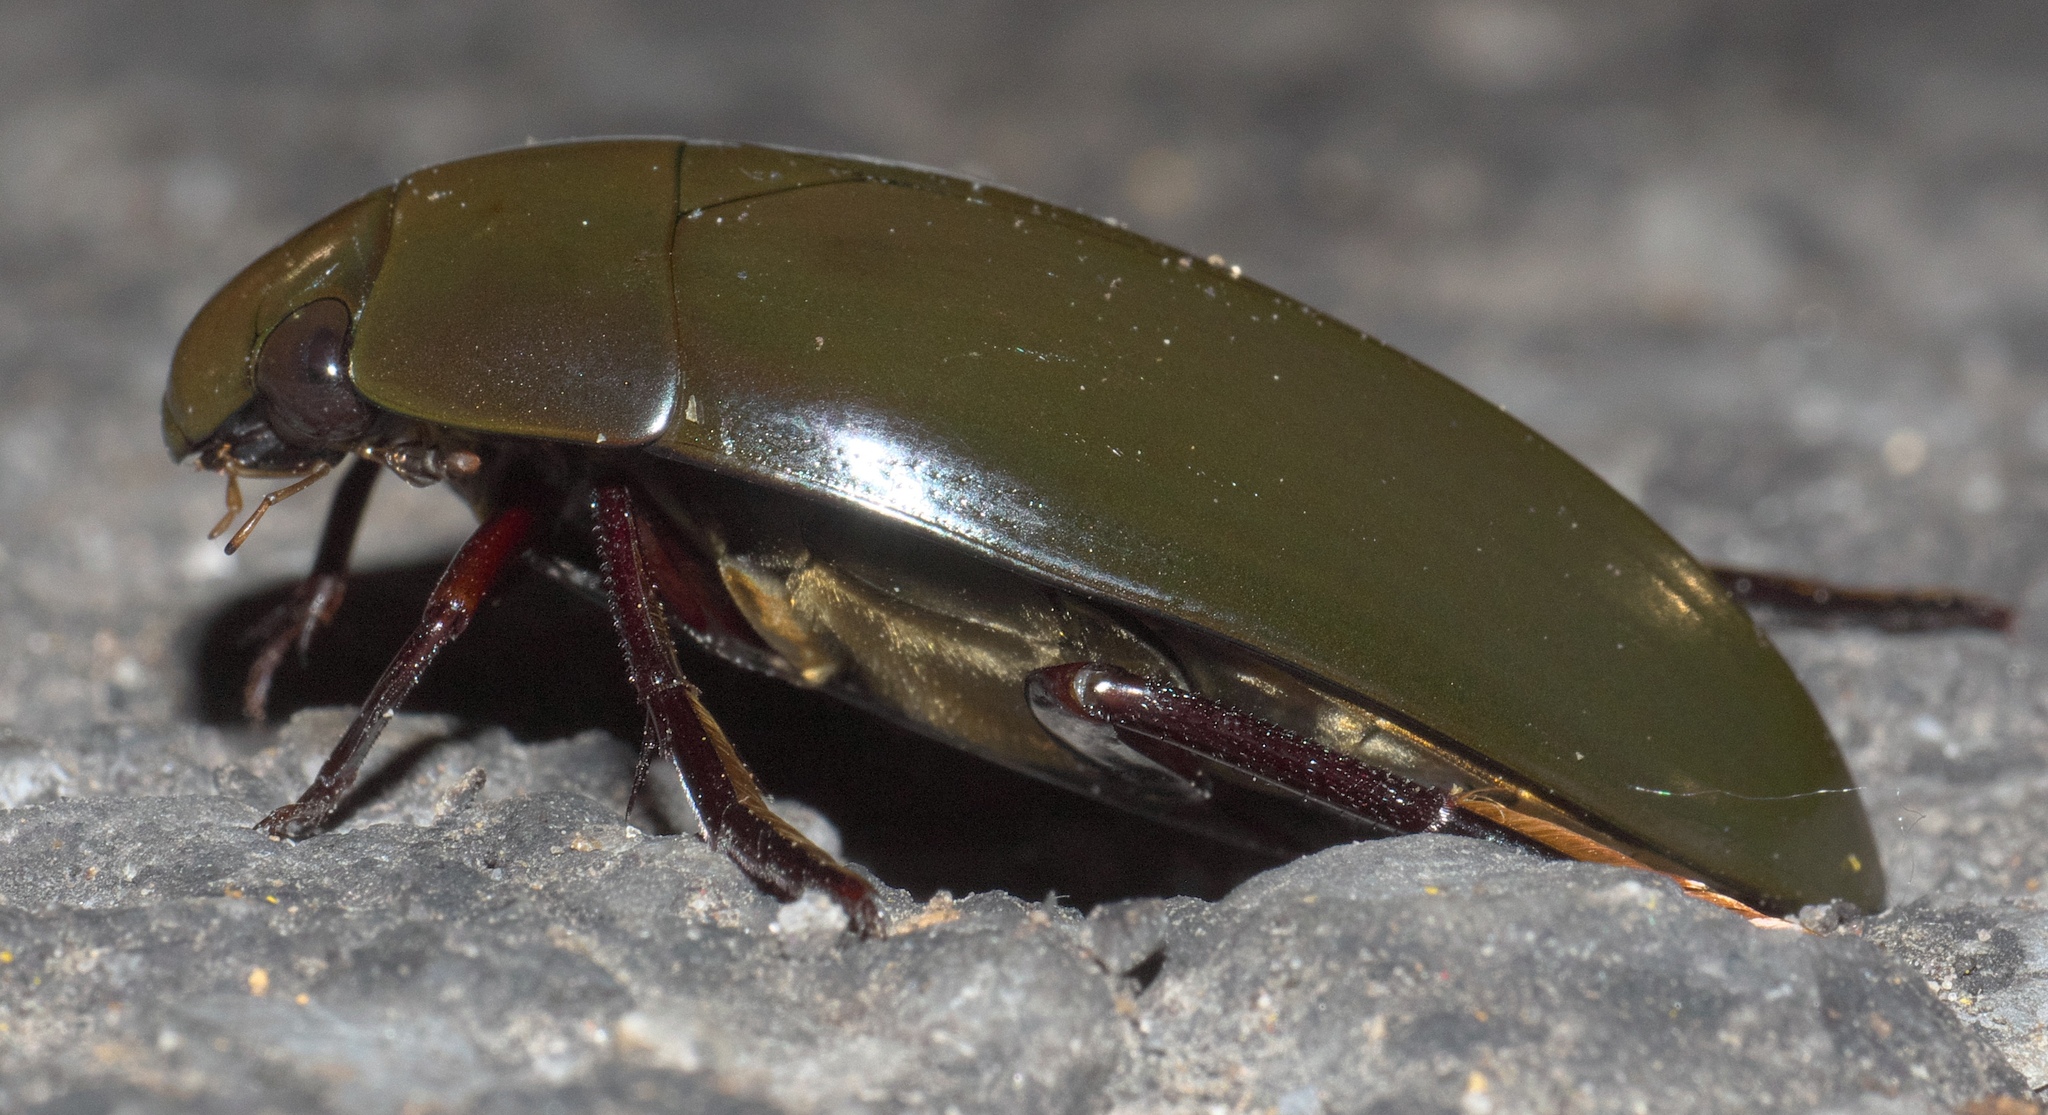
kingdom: Animalia
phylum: Arthropoda
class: Insecta
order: Coleoptera
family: Hydrophilidae
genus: Hydrophilus
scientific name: Hydrophilus
